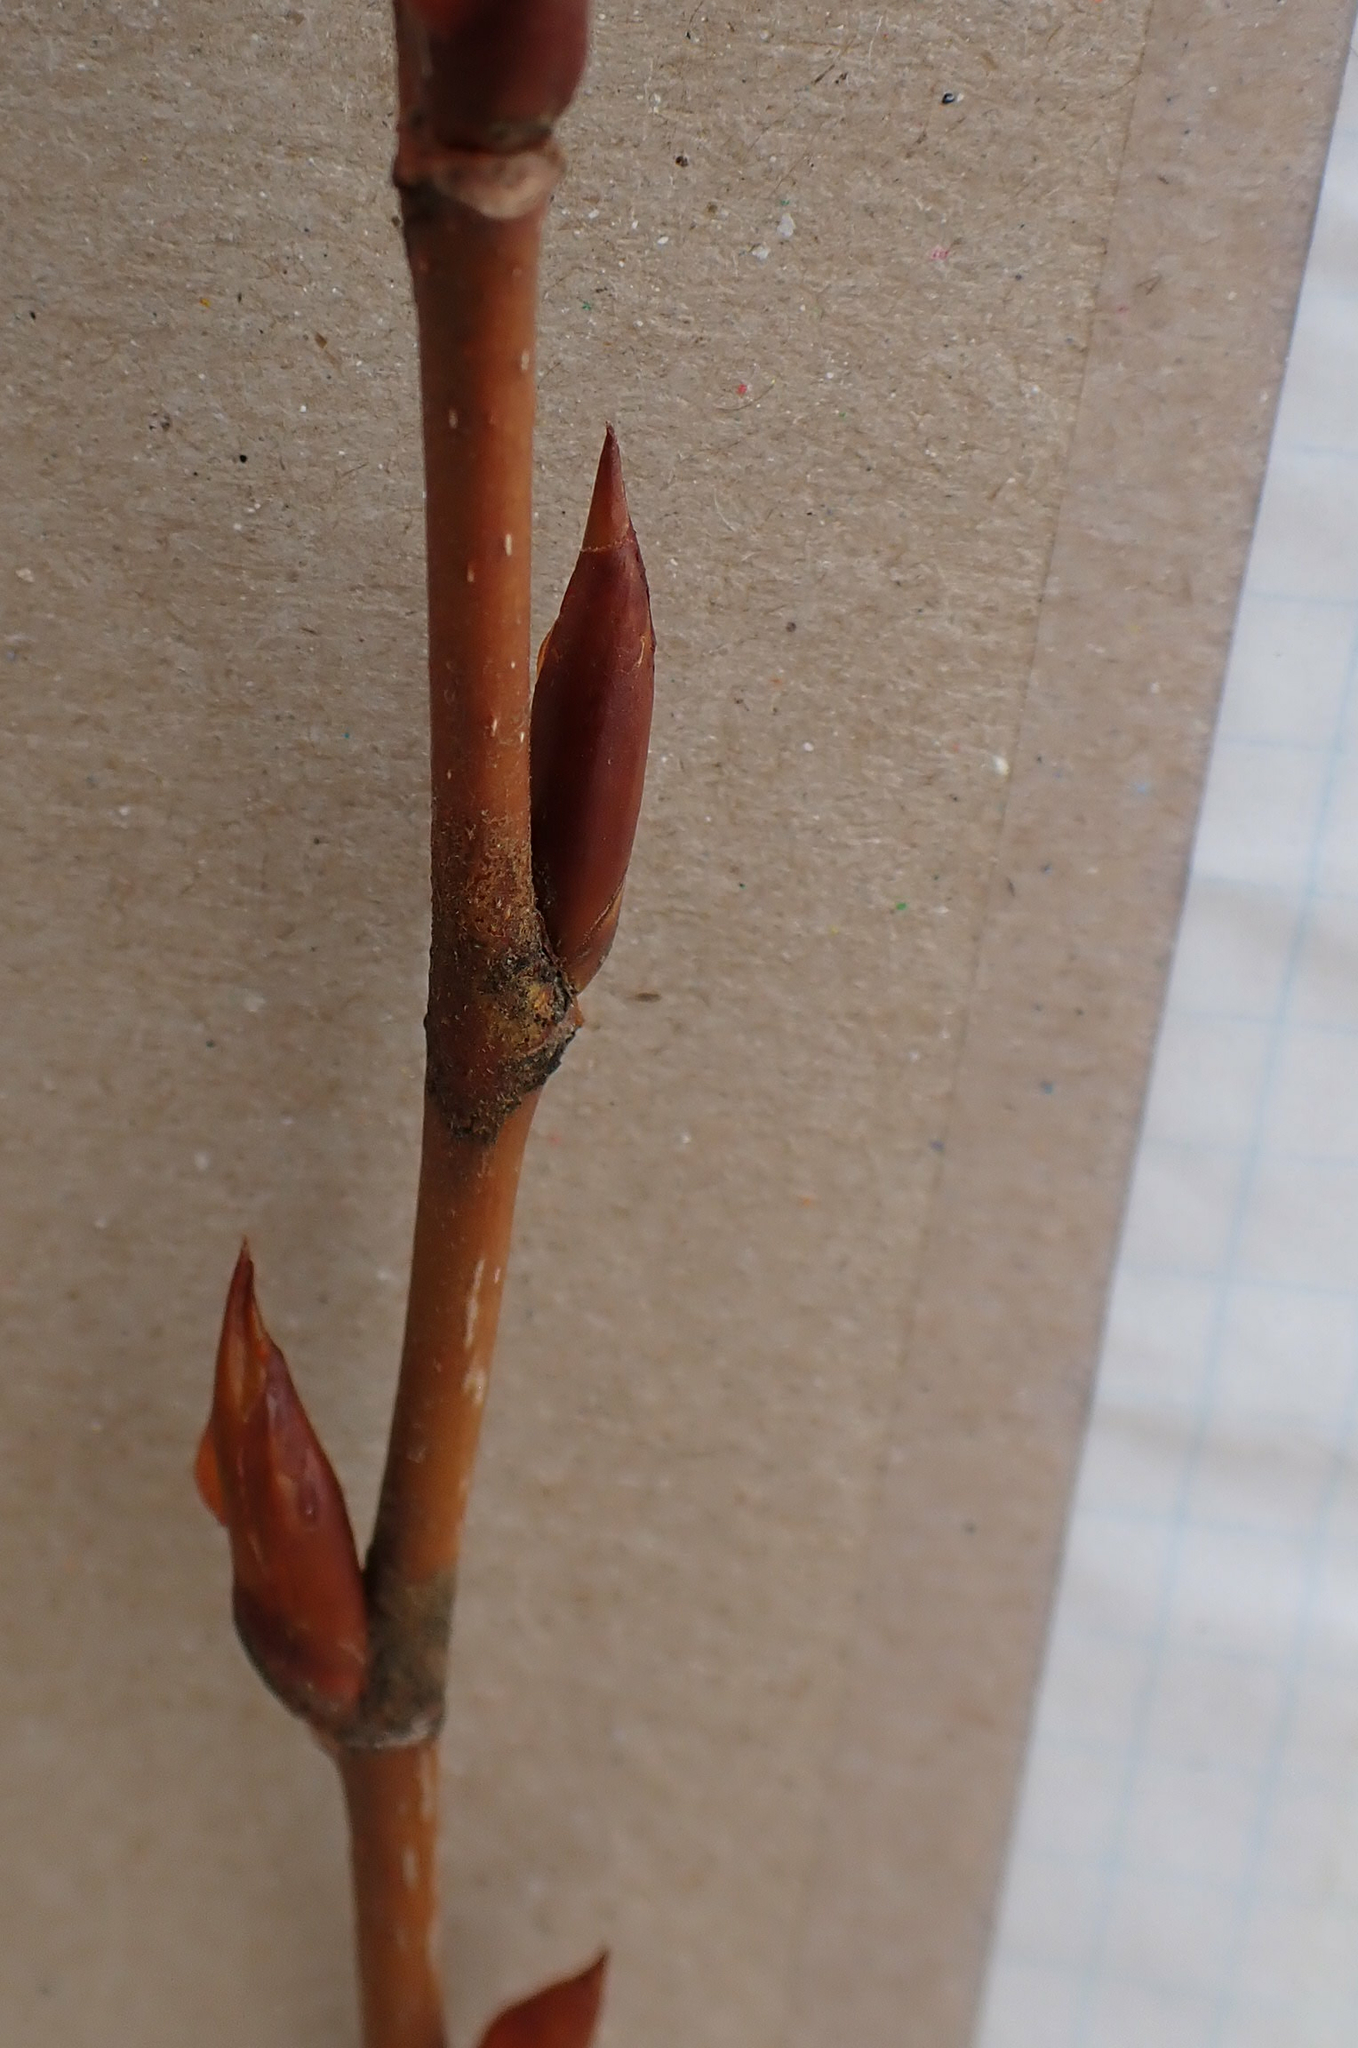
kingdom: Plantae
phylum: Tracheophyta
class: Magnoliopsida
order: Malpighiales
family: Salicaceae
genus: Populus
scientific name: Populus balsamifera
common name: Balsam poplar
